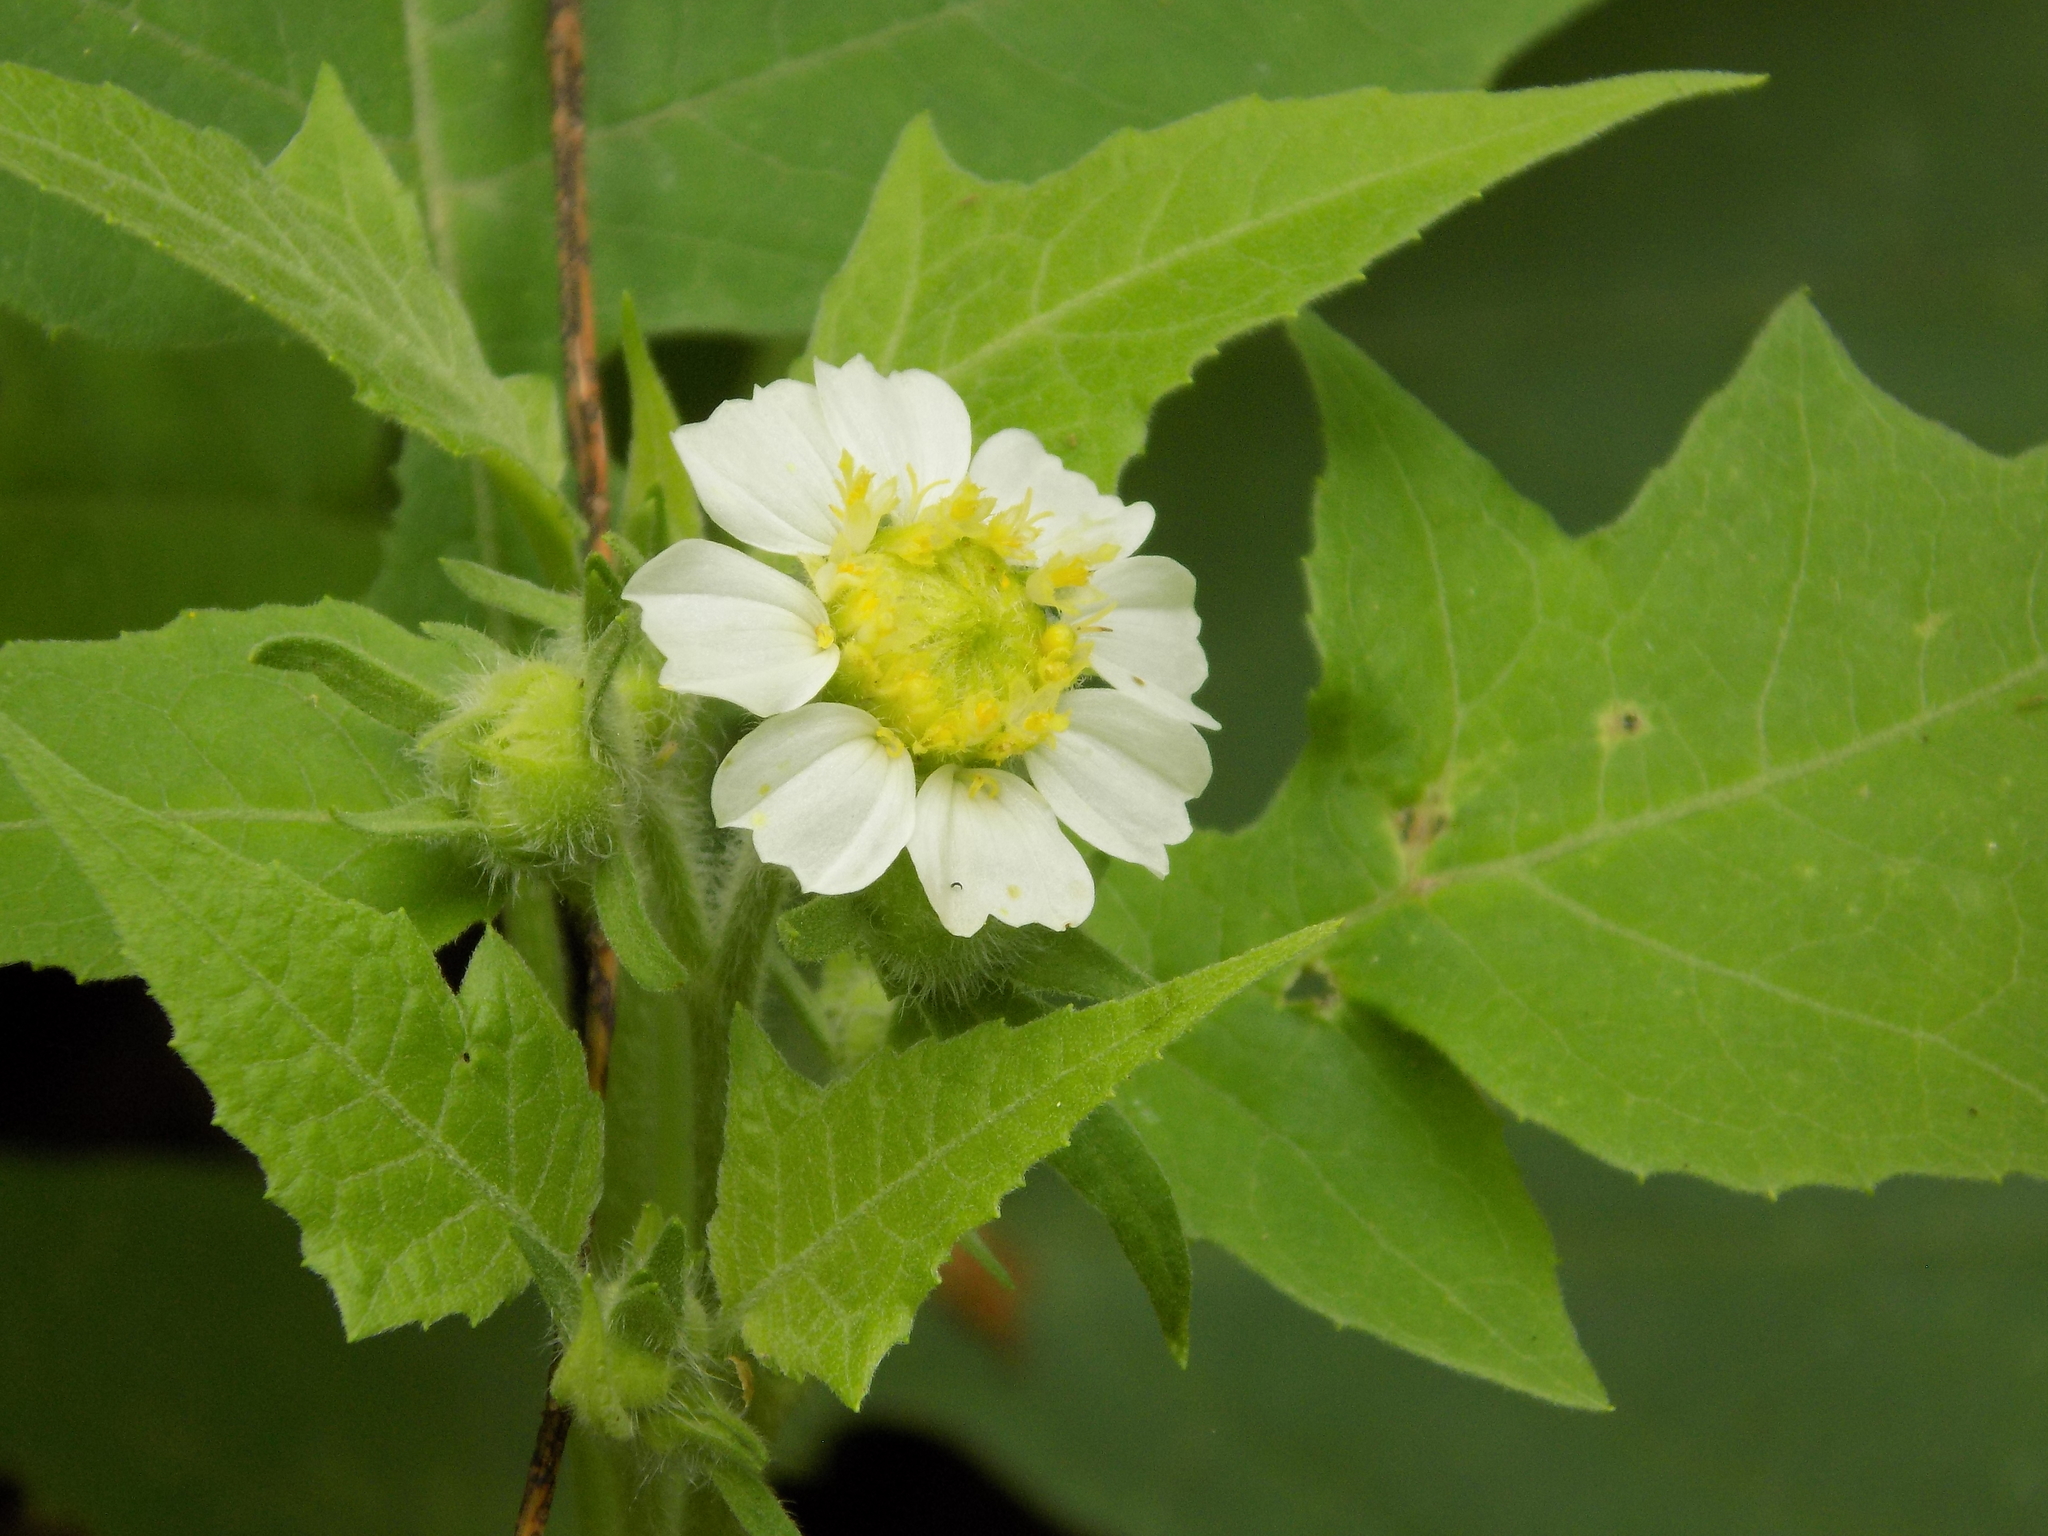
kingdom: Plantae
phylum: Tracheophyta
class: Magnoliopsida
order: Asterales
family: Asteraceae
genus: Polymnia
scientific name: Polymnia canadensis
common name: Pale-flowered leafcup
